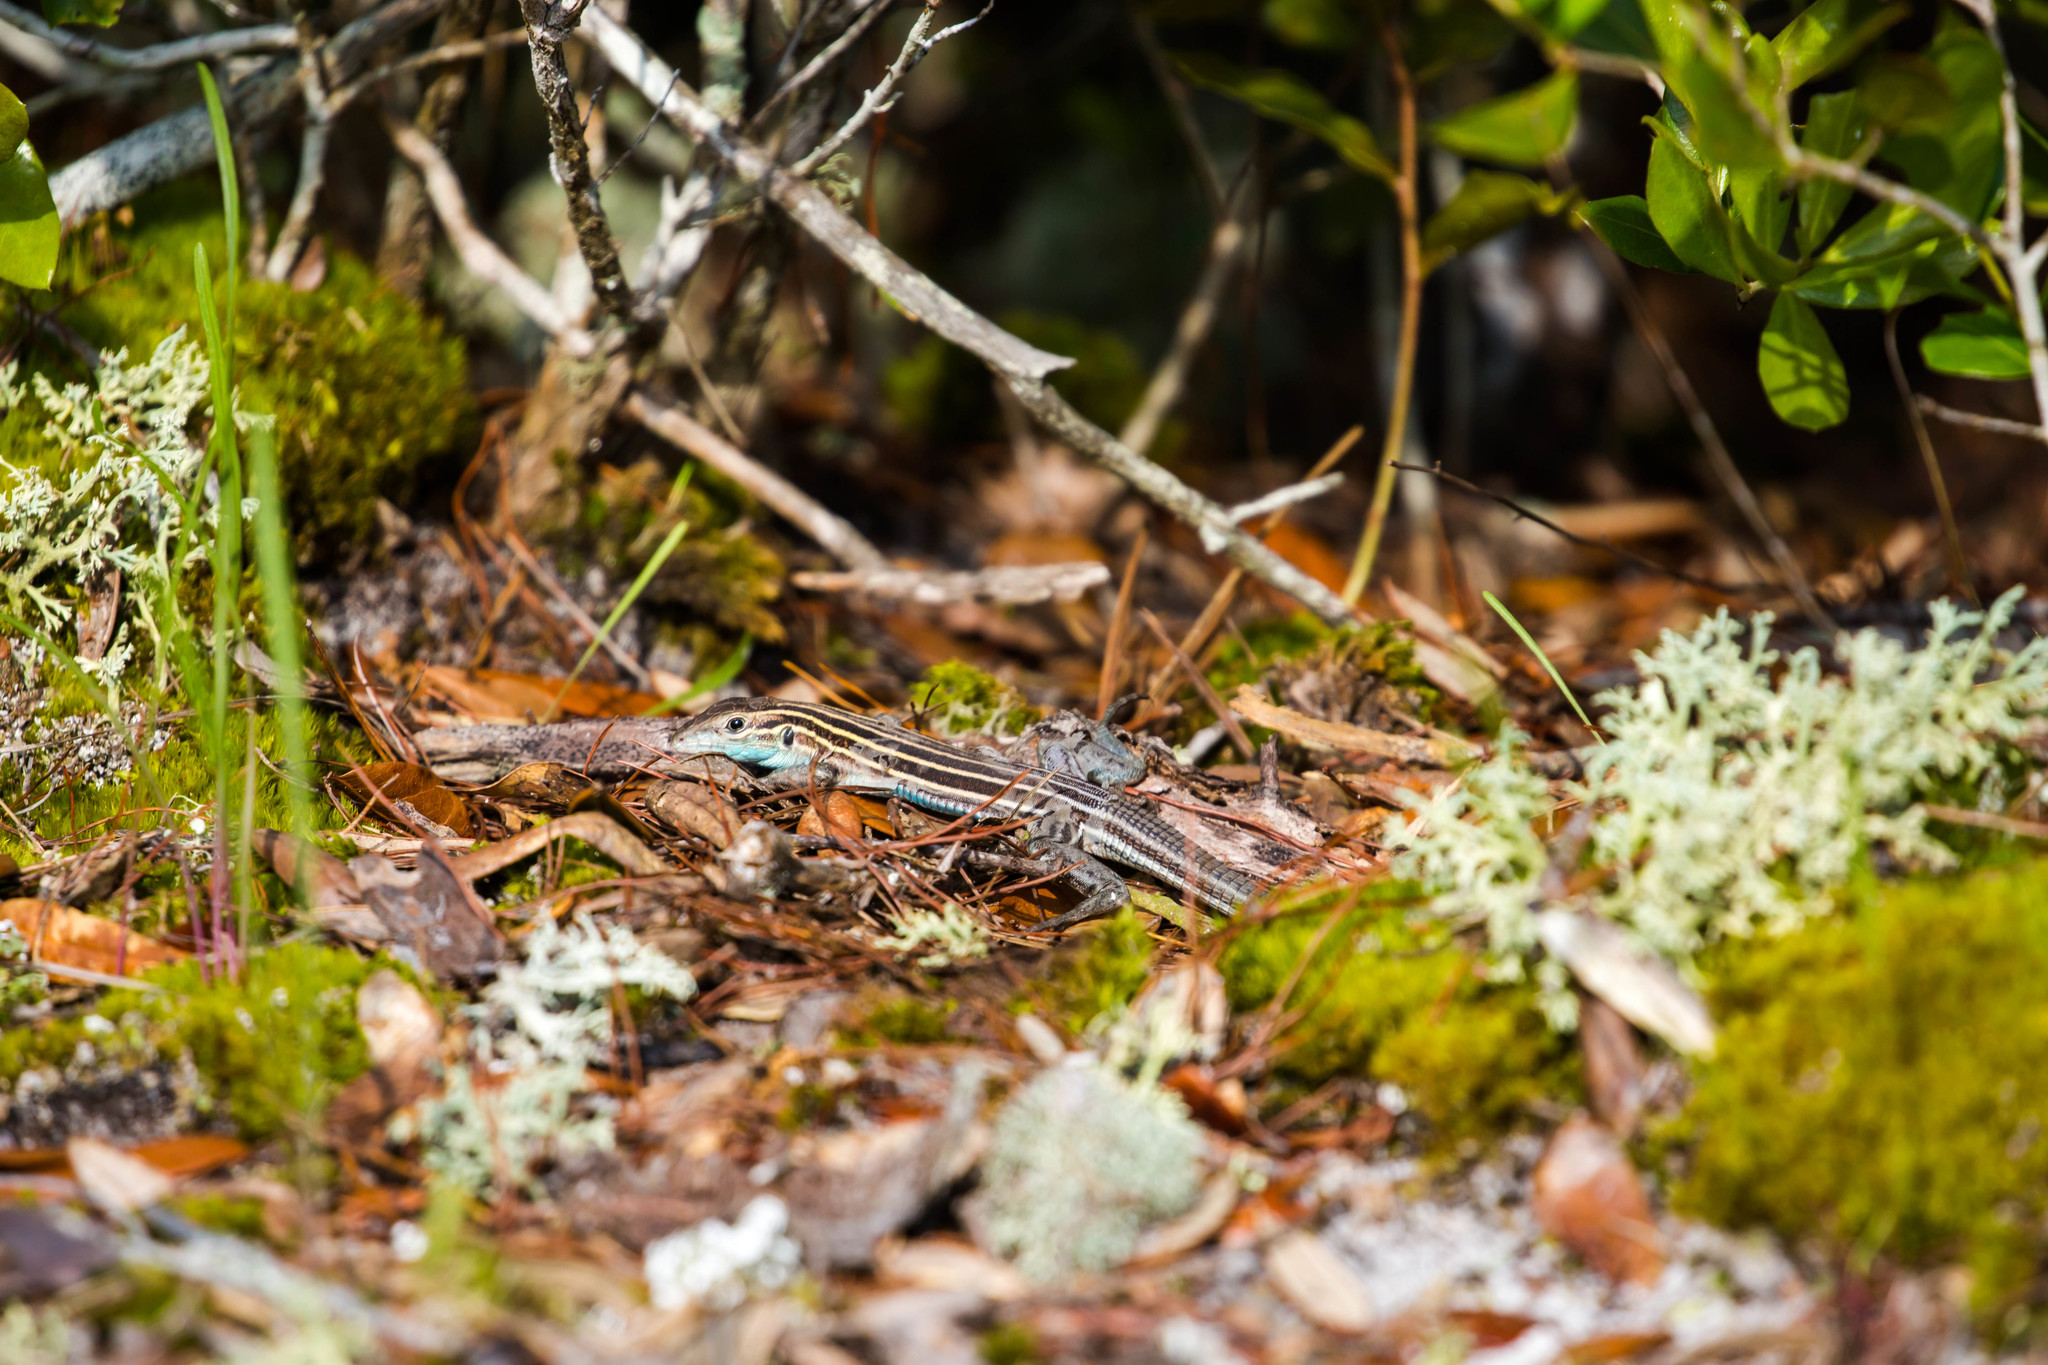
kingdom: Animalia
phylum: Chordata
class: Squamata
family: Teiidae
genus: Aspidoscelis
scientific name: Aspidoscelis sexlineatus
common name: Six-lined racerunner
